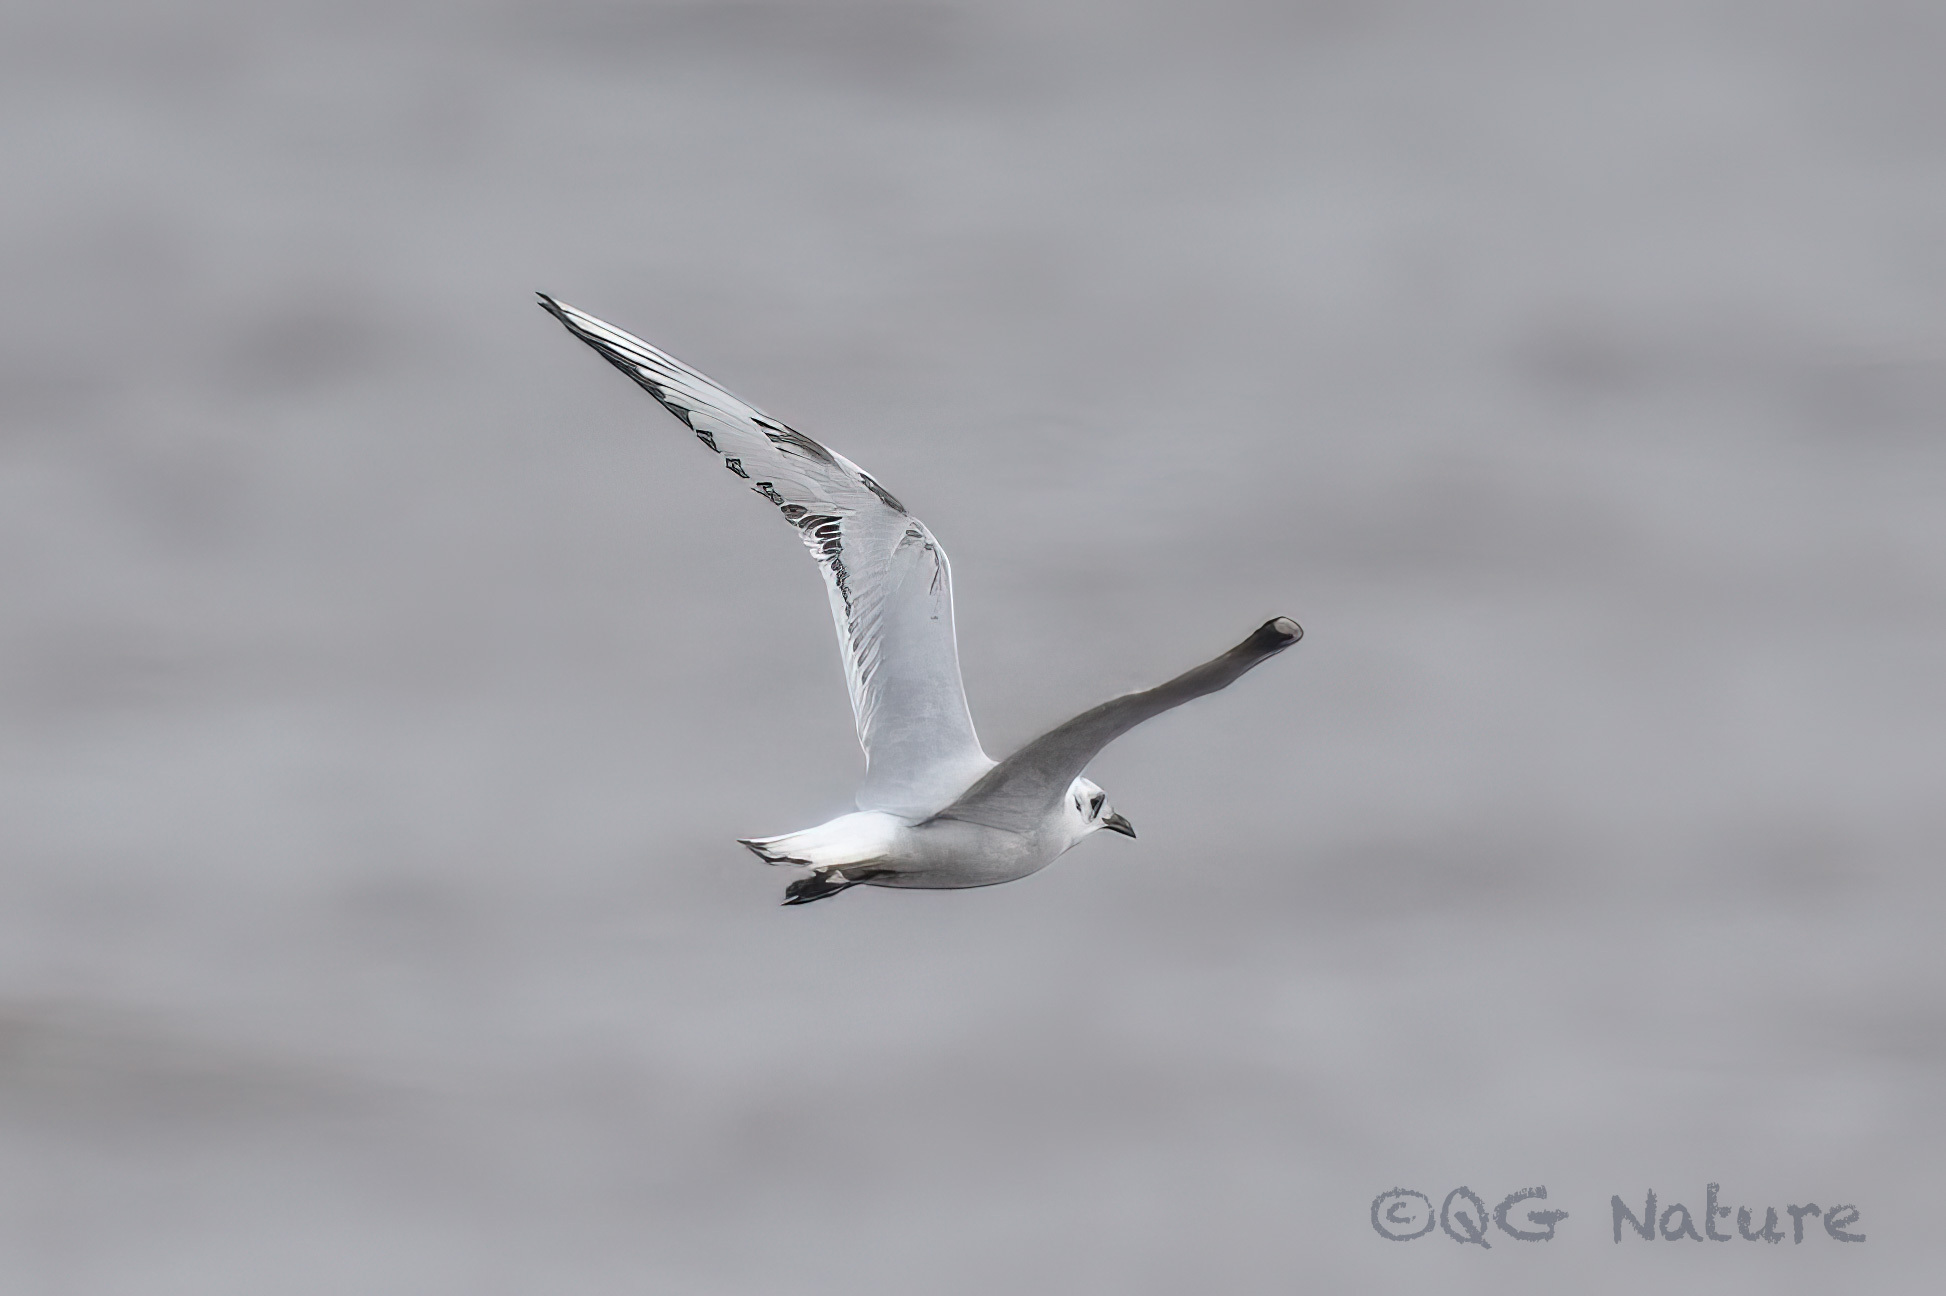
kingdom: Animalia
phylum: Chordata
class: Aves
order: Charadriiformes
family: Laridae
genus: Chroicocephalus
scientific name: Chroicocephalus saundersi
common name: Saunders's gull
